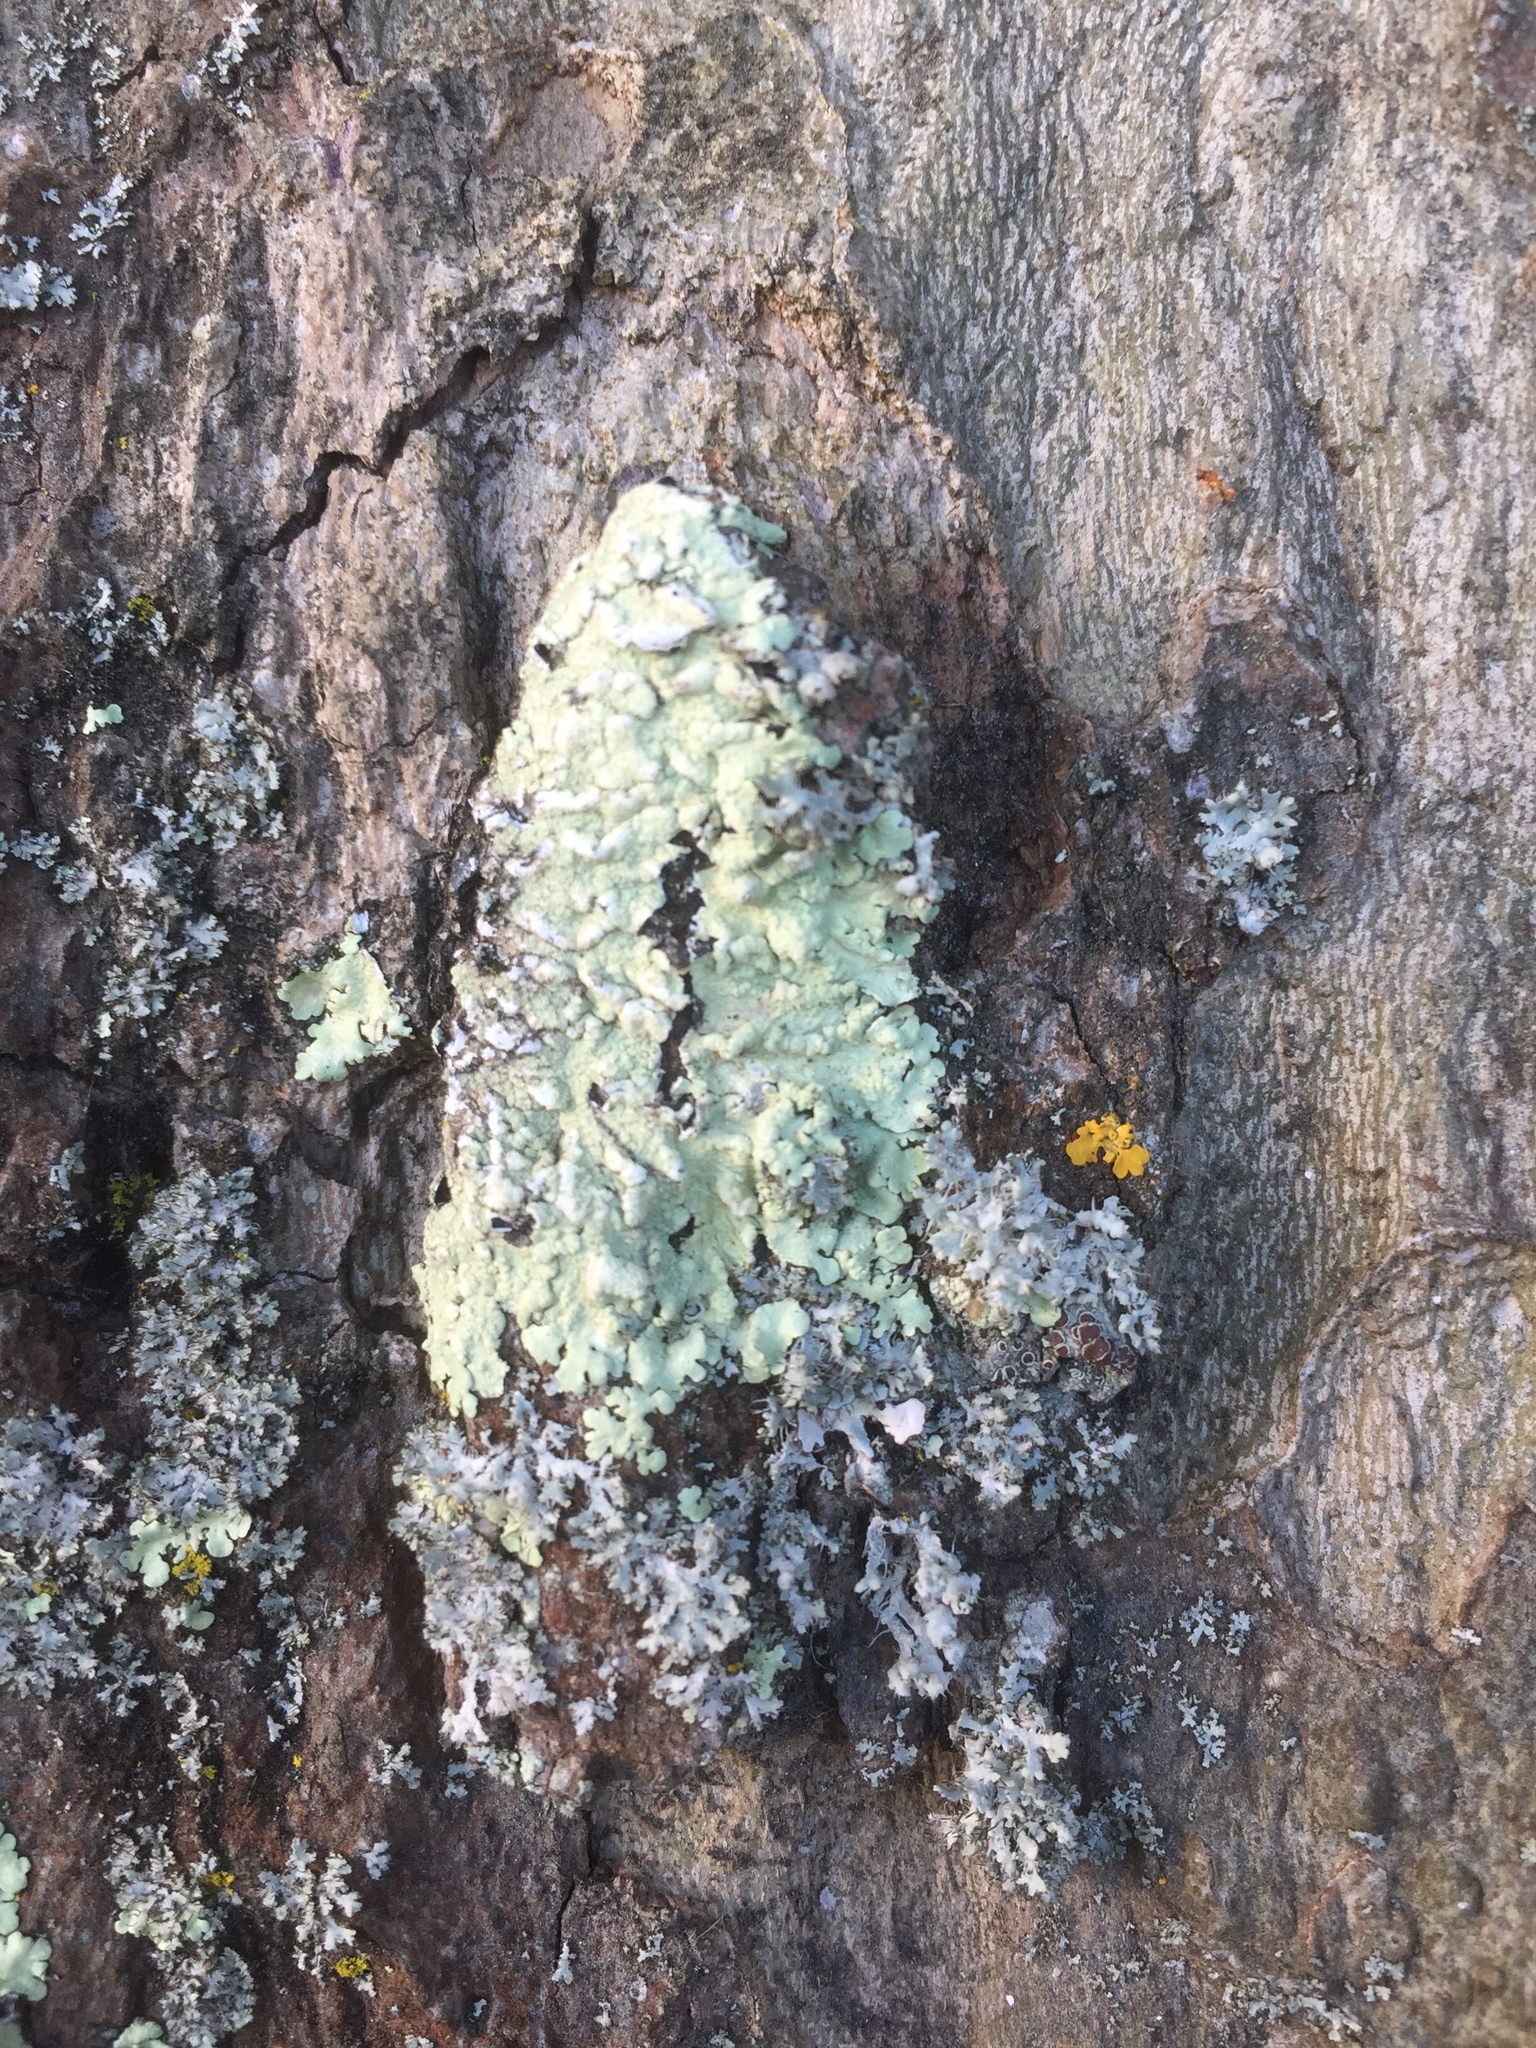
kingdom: Fungi
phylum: Ascomycota
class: Lecanoromycetes
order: Lecanorales
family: Parmeliaceae
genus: Flavoparmelia
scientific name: Flavoparmelia soredians
